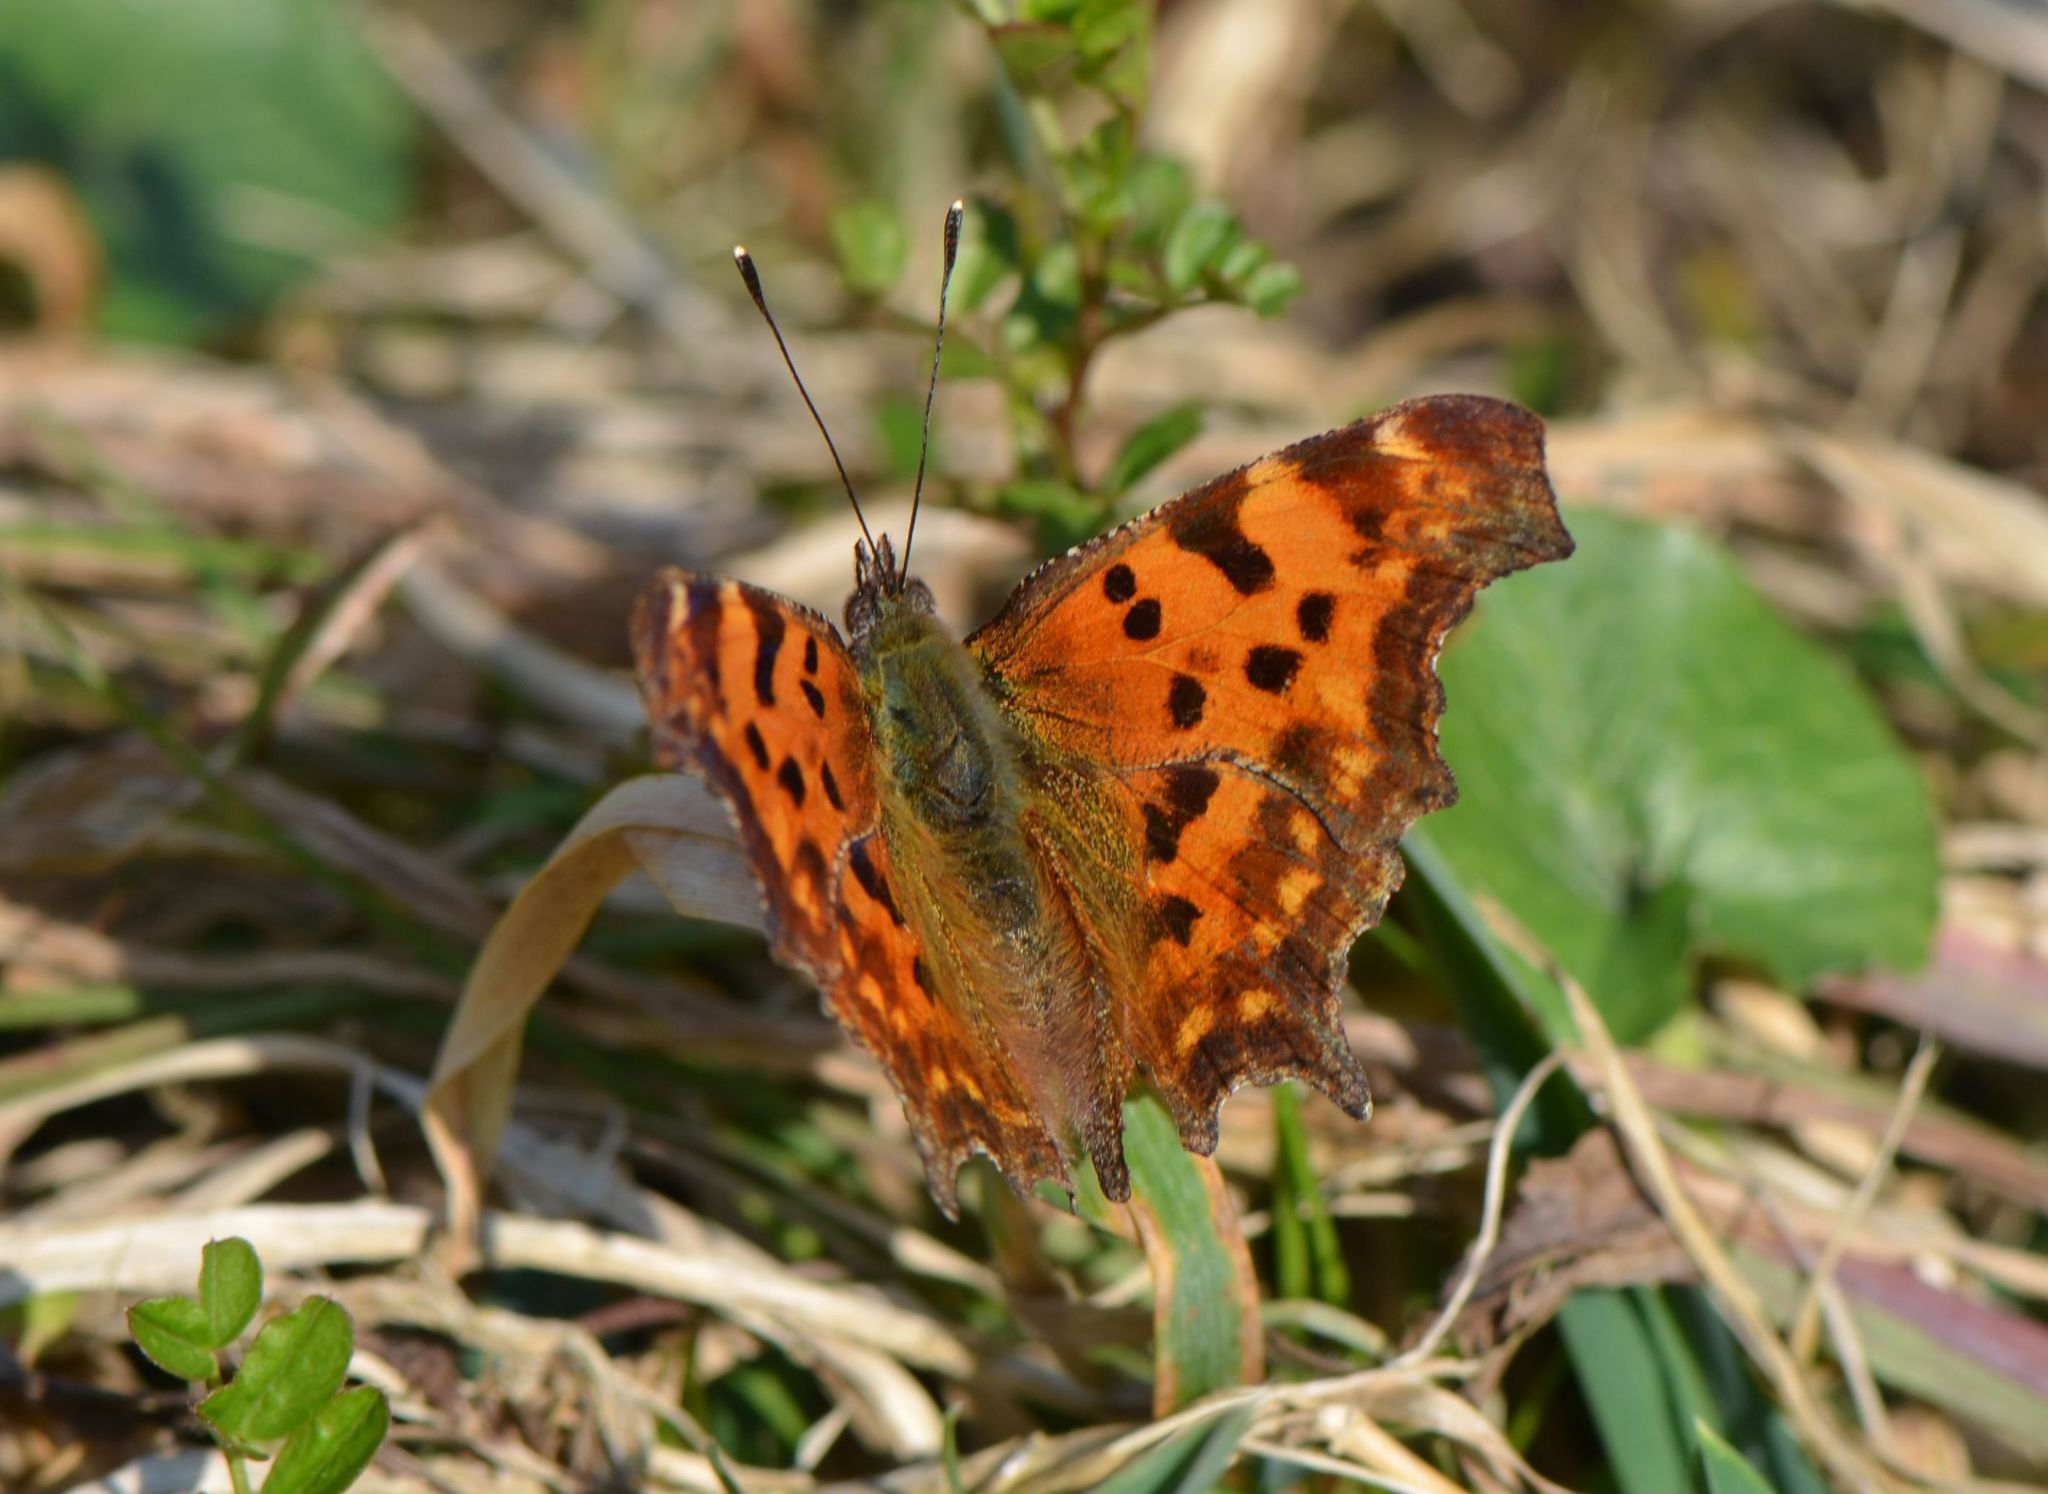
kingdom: Animalia
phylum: Arthropoda
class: Insecta
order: Lepidoptera
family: Nymphalidae
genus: Polygonia
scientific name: Polygonia c-album
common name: Comma
